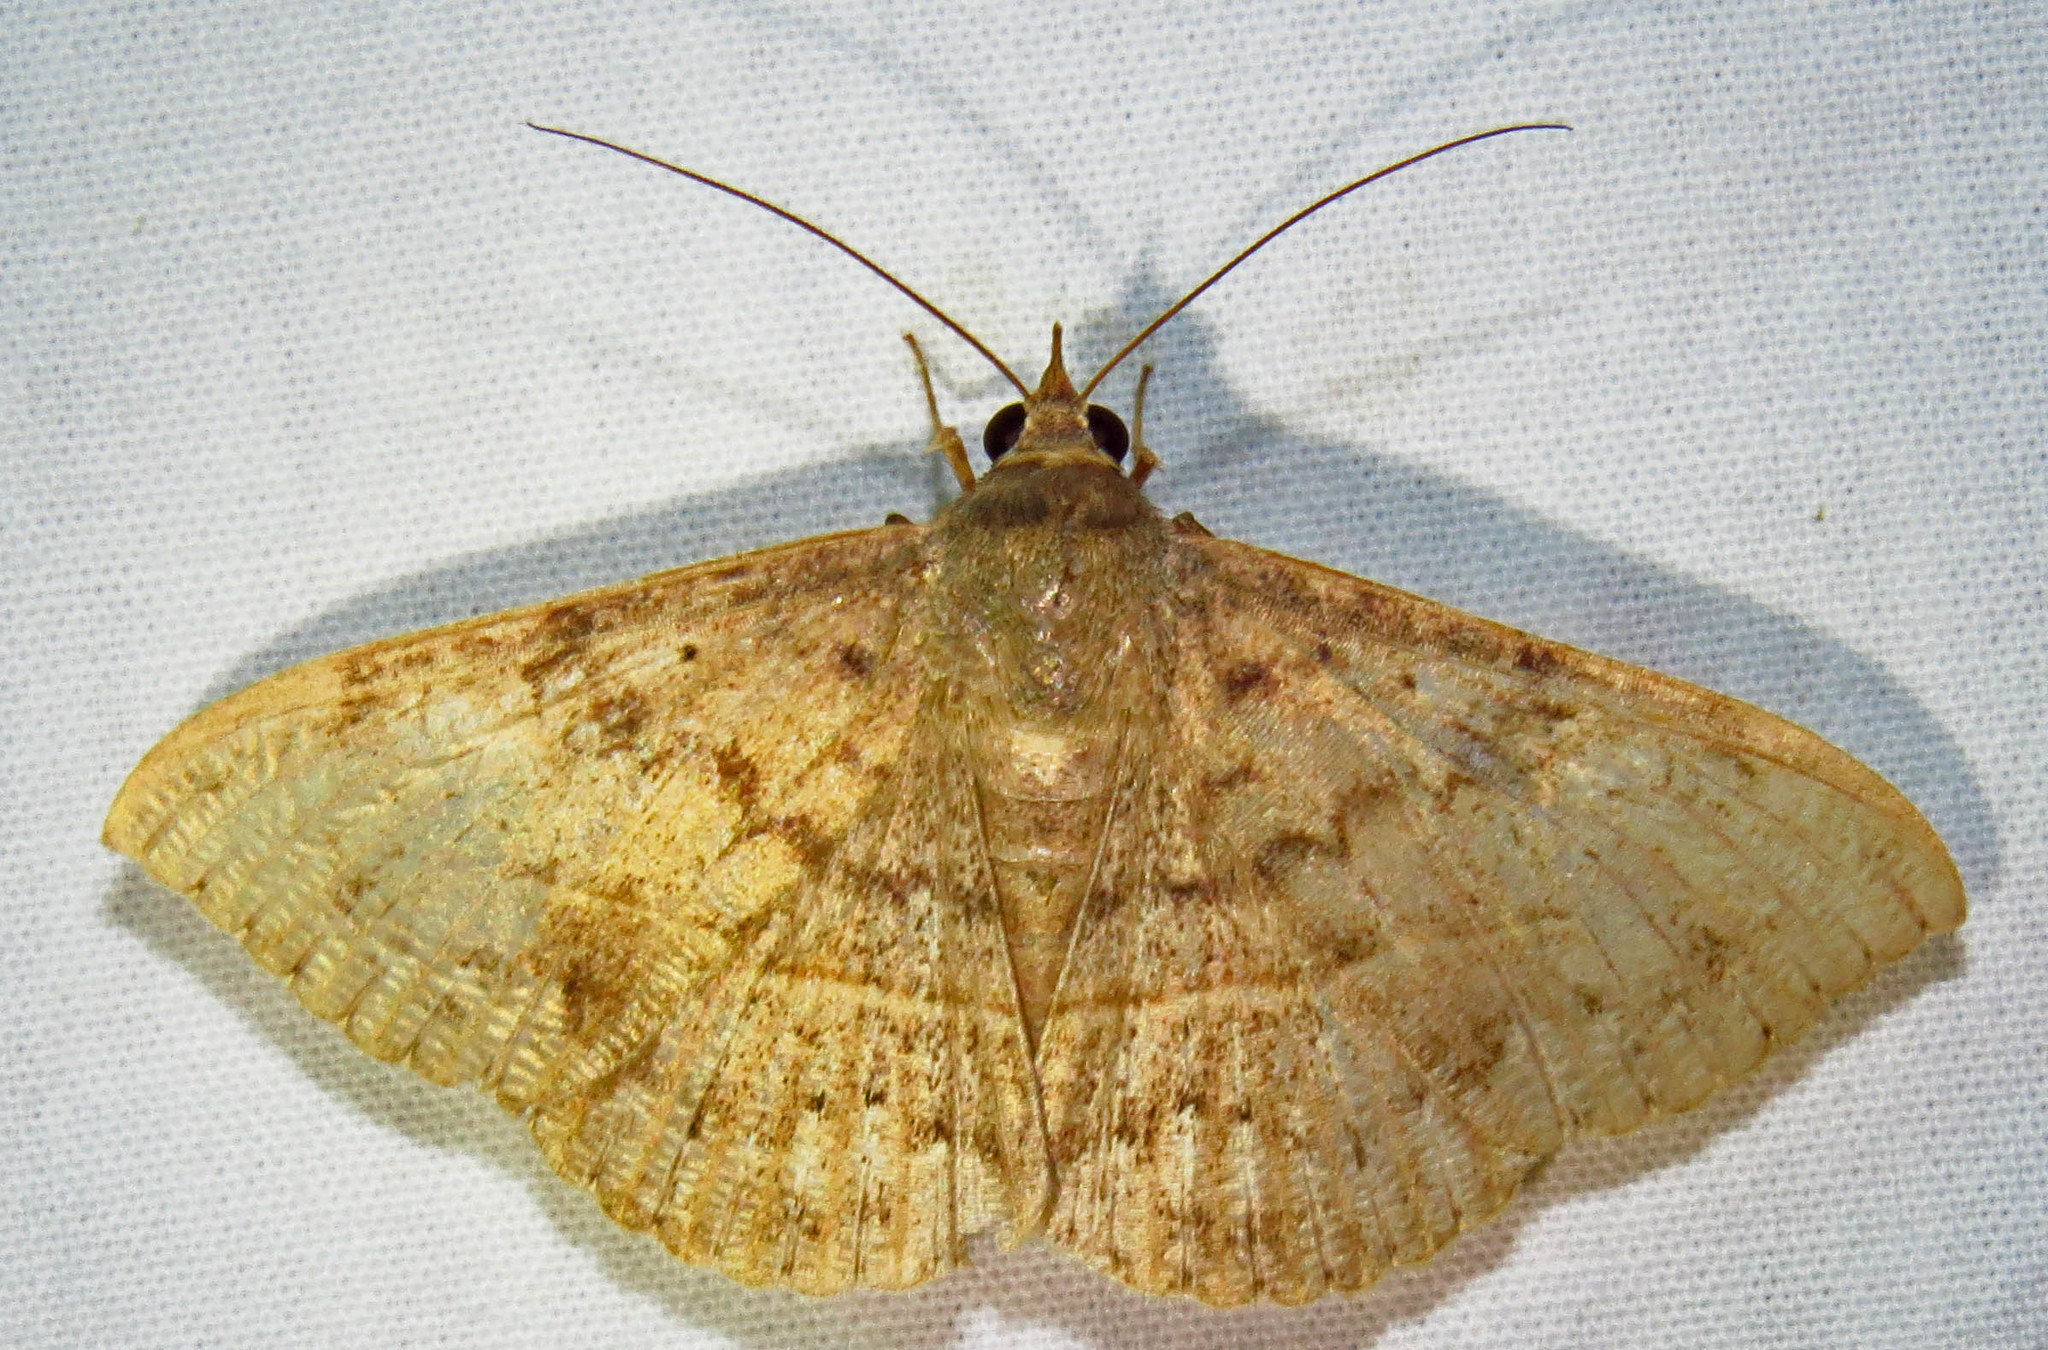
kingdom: Animalia
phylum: Arthropoda
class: Insecta
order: Lepidoptera
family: Erebidae
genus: Anticarsia
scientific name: Anticarsia gemmatalis
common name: Cutworm moth
